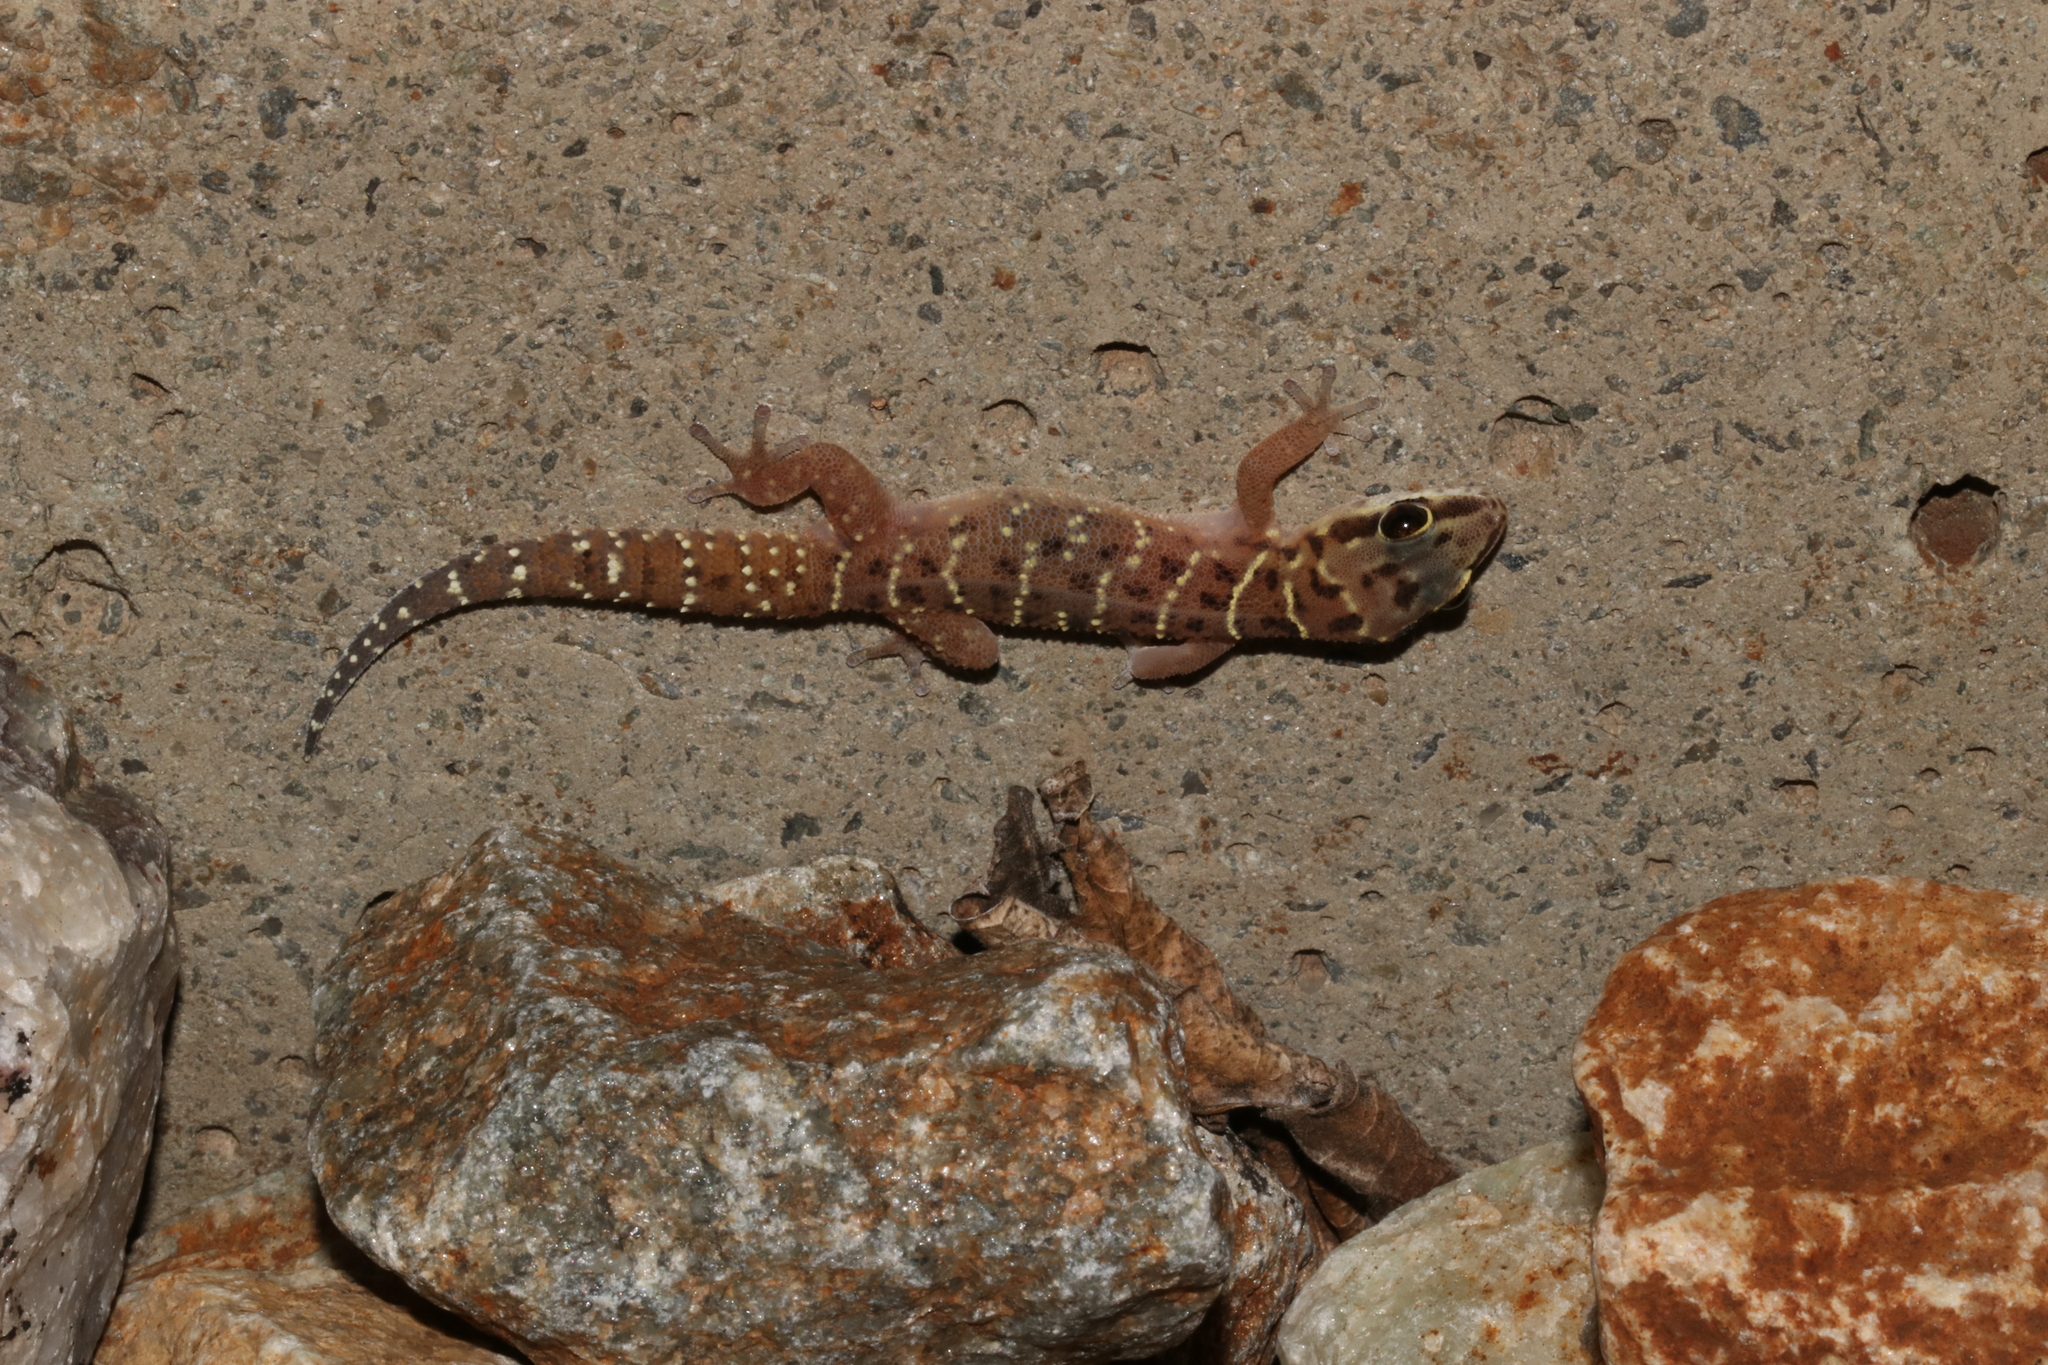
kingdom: Animalia
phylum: Chordata
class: Squamata
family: Gekkonidae
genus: Pachydactylus
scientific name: Pachydactylus affinis
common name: Transvaal gecko
